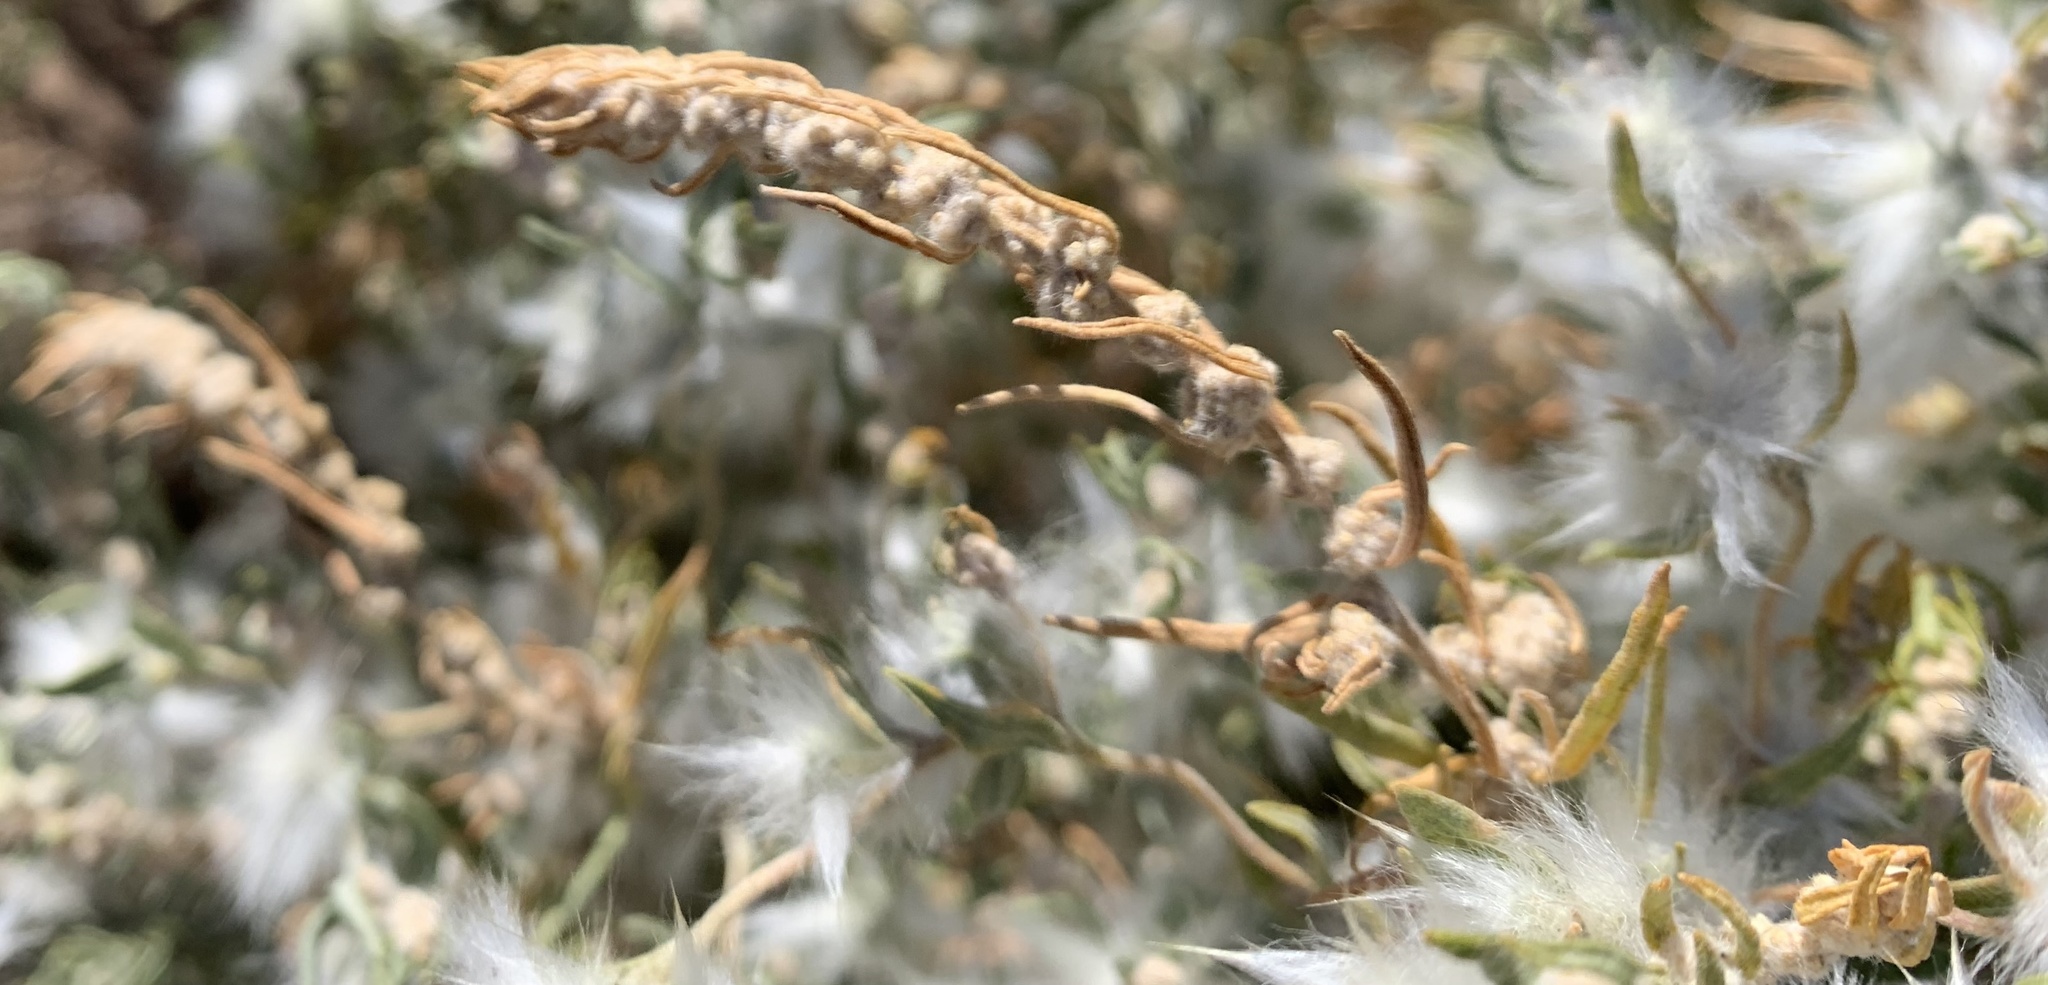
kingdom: Plantae
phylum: Tracheophyta
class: Magnoliopsida
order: Caryophyllales
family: Amaranthaceae
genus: Krascheninnikovia
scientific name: Krascheninnikovia lanata
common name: Winterfat
